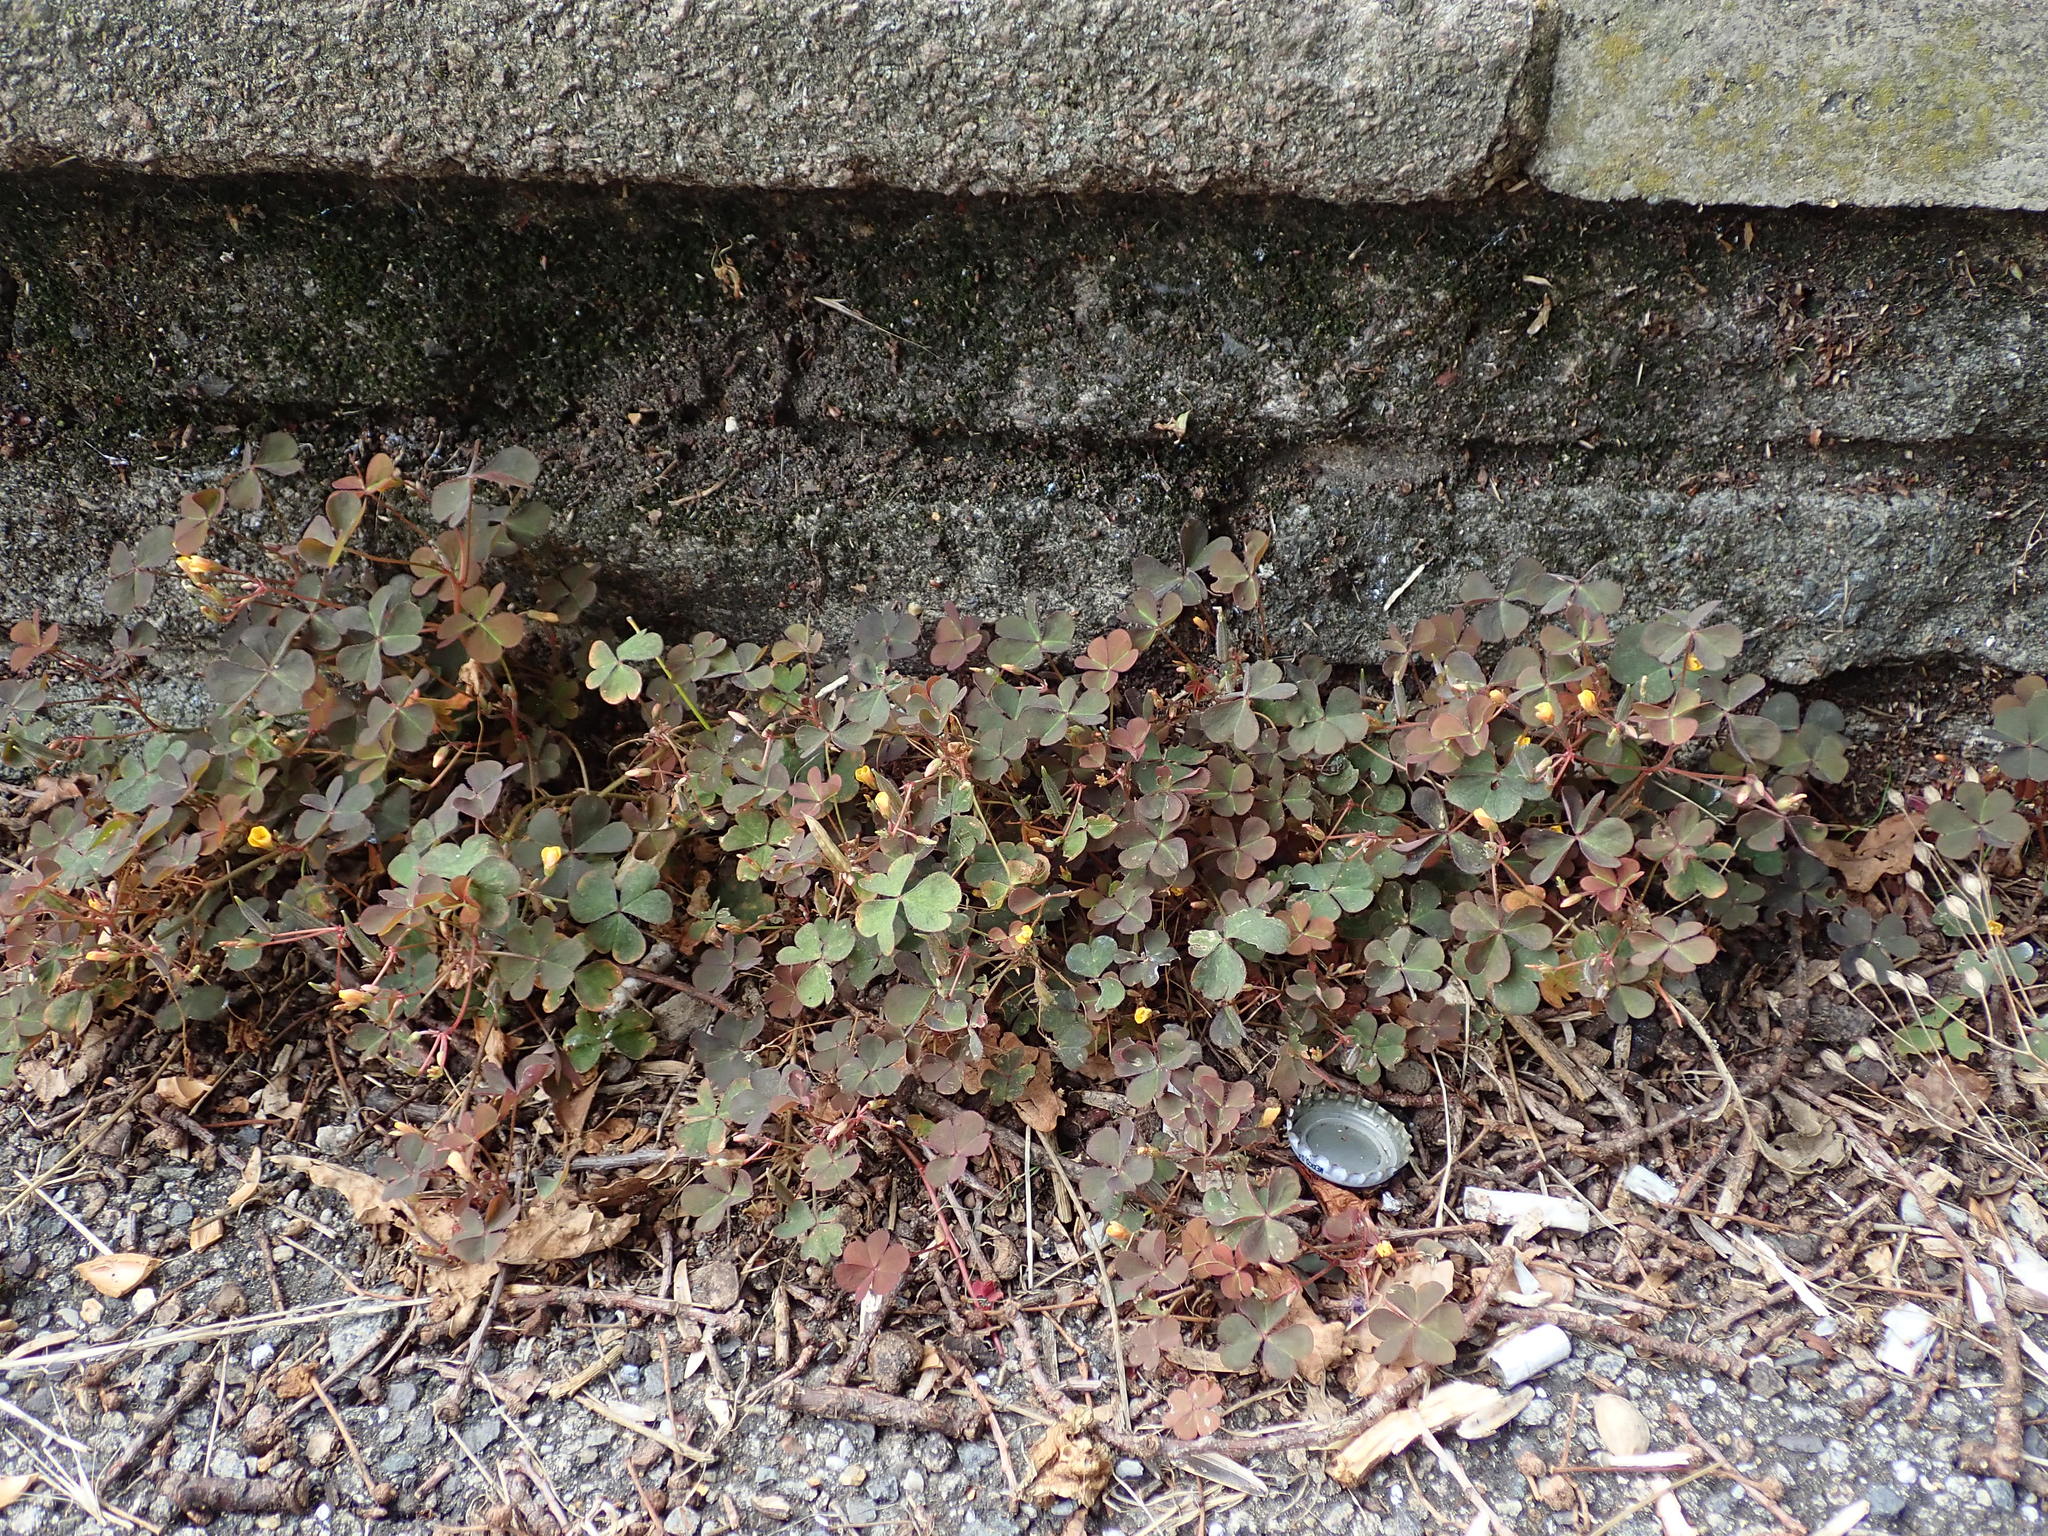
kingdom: Plantae
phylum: Tracheophyta
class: Magnoliopsida
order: Oxalidales
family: Oxalidaceae
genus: Oxalis
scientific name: Oxalis corniculata
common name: Procumbent yellow-sorrel
